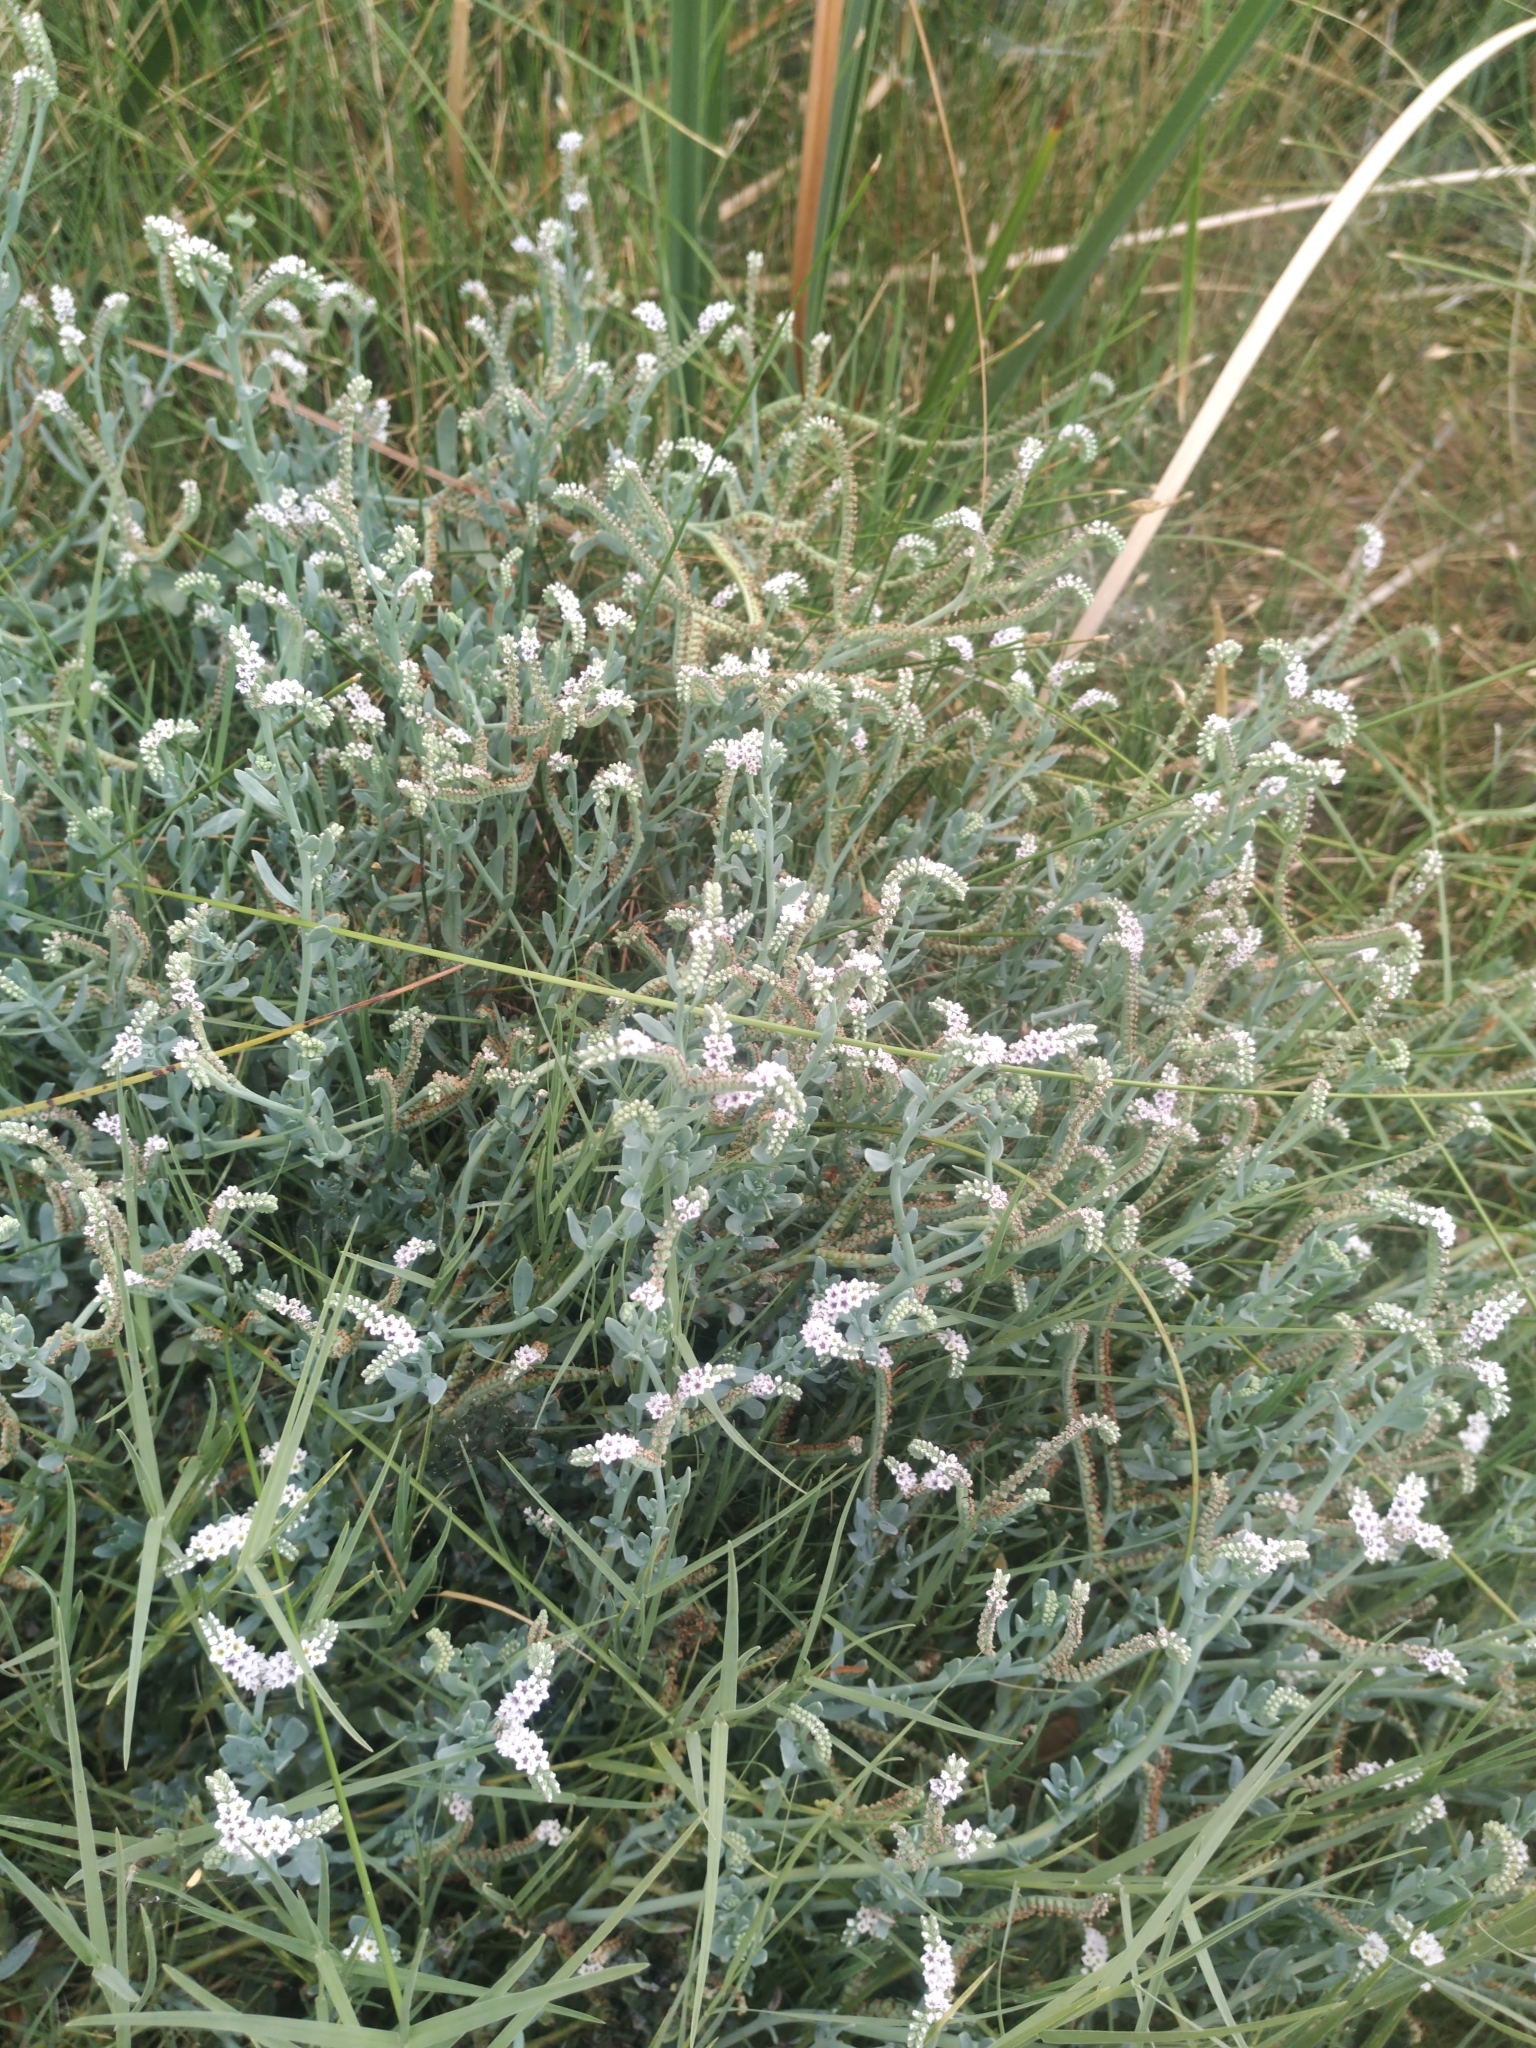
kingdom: Plantae
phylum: Tracheophyta
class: Magnoliopsida
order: Boraginales
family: Heliotropiaceae
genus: Heliotropium
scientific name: Heliotropium curassavicum
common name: Seaside heliotrope
